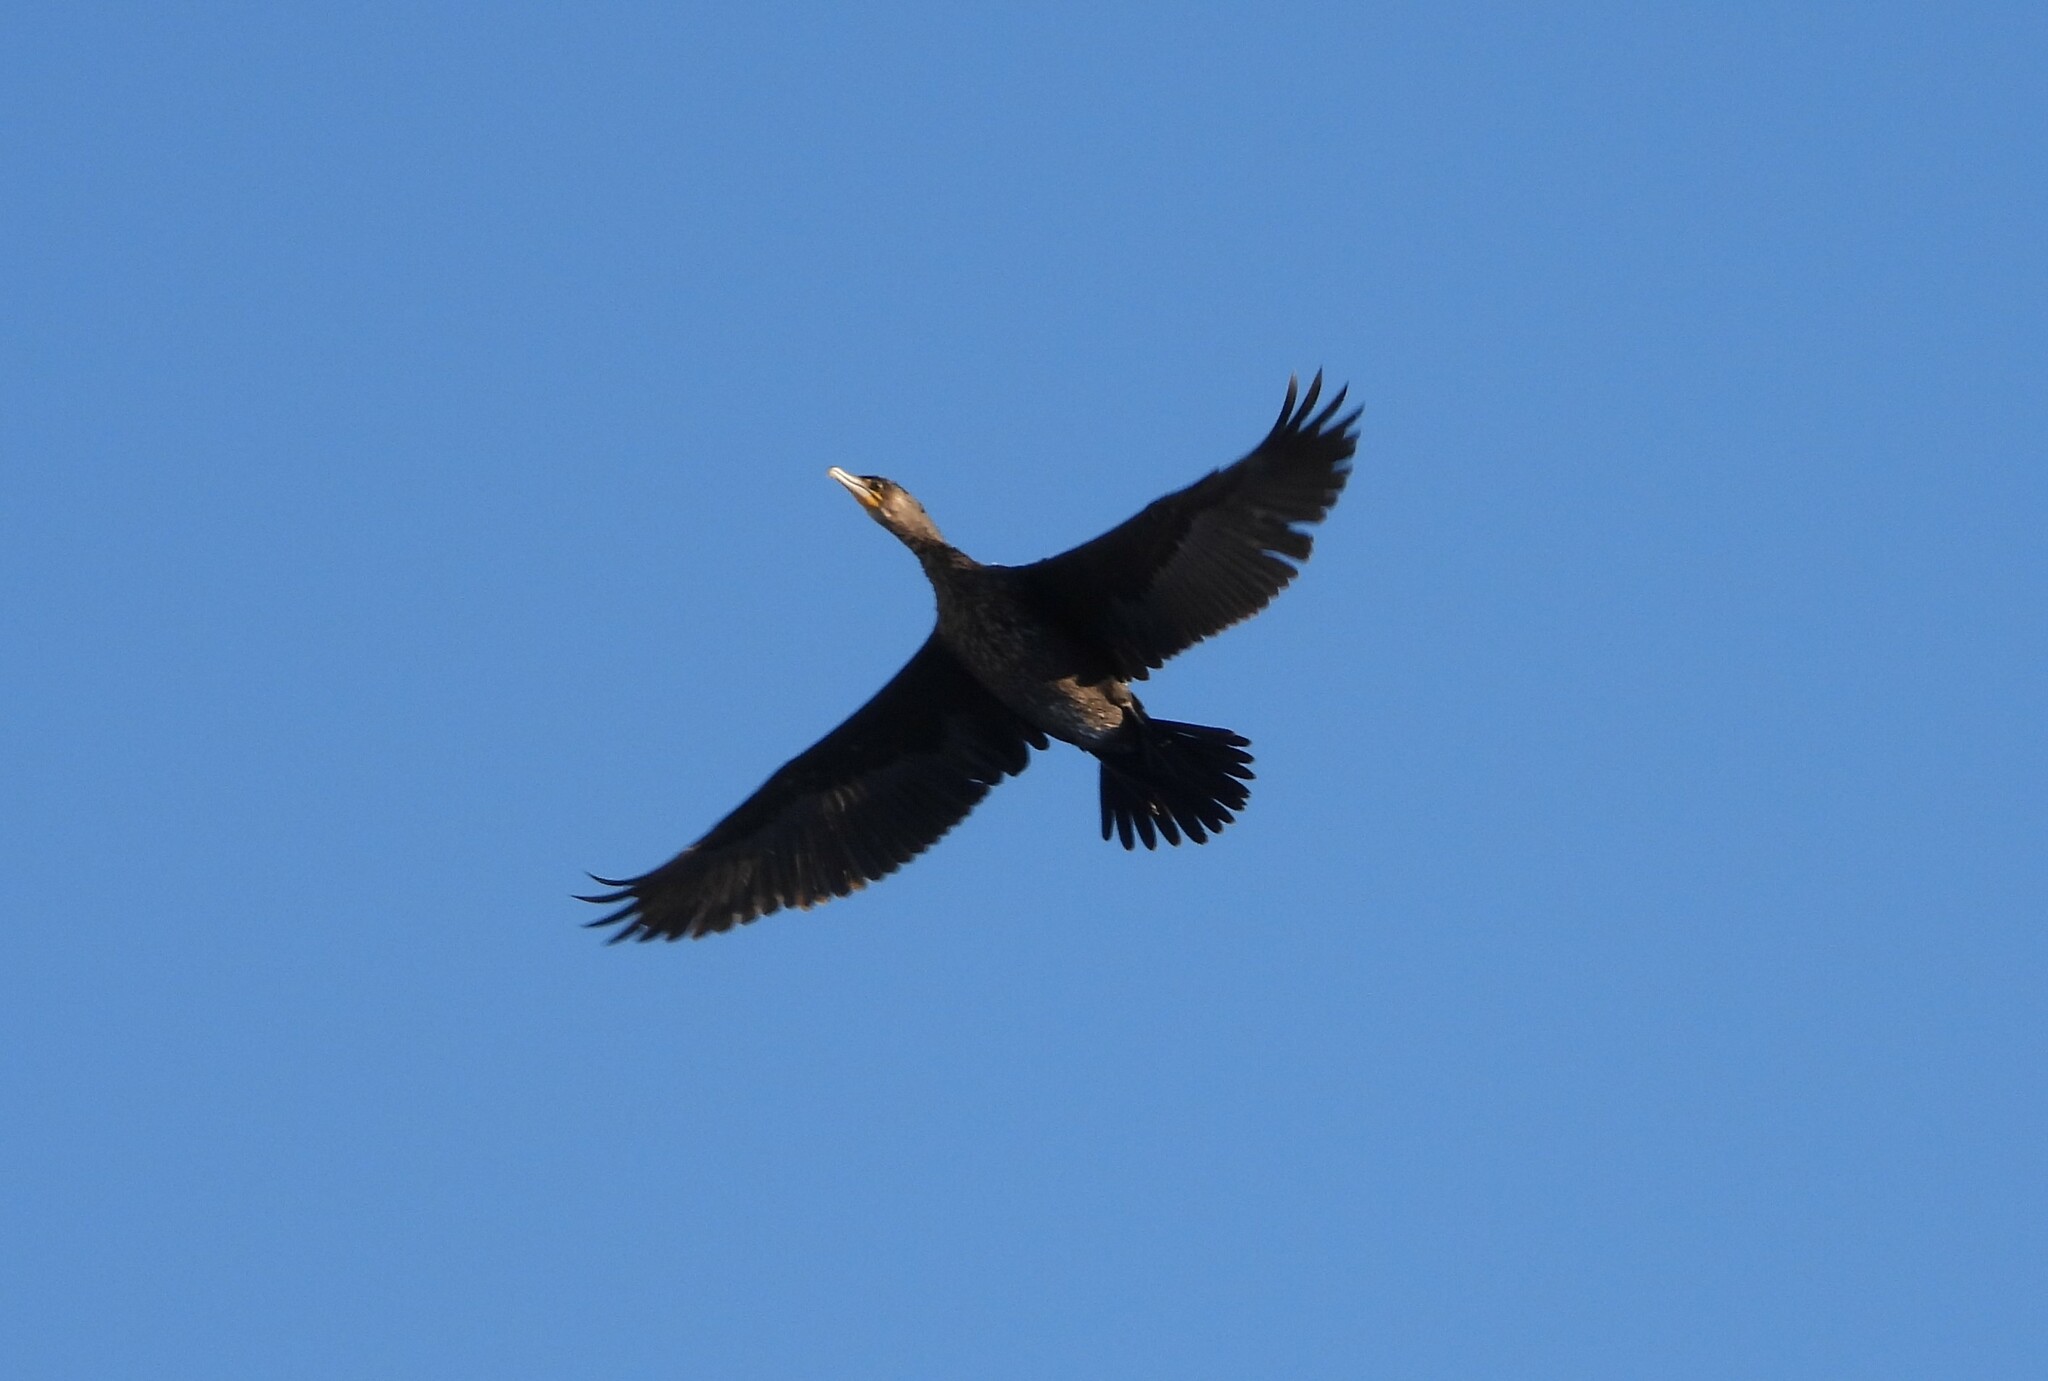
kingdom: Animalia
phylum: Chordata
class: Aves
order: Suliformes
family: Phalacrocoracidae
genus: Phalacrocorax
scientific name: Phalacrocorax carbo
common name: Great cormorant
